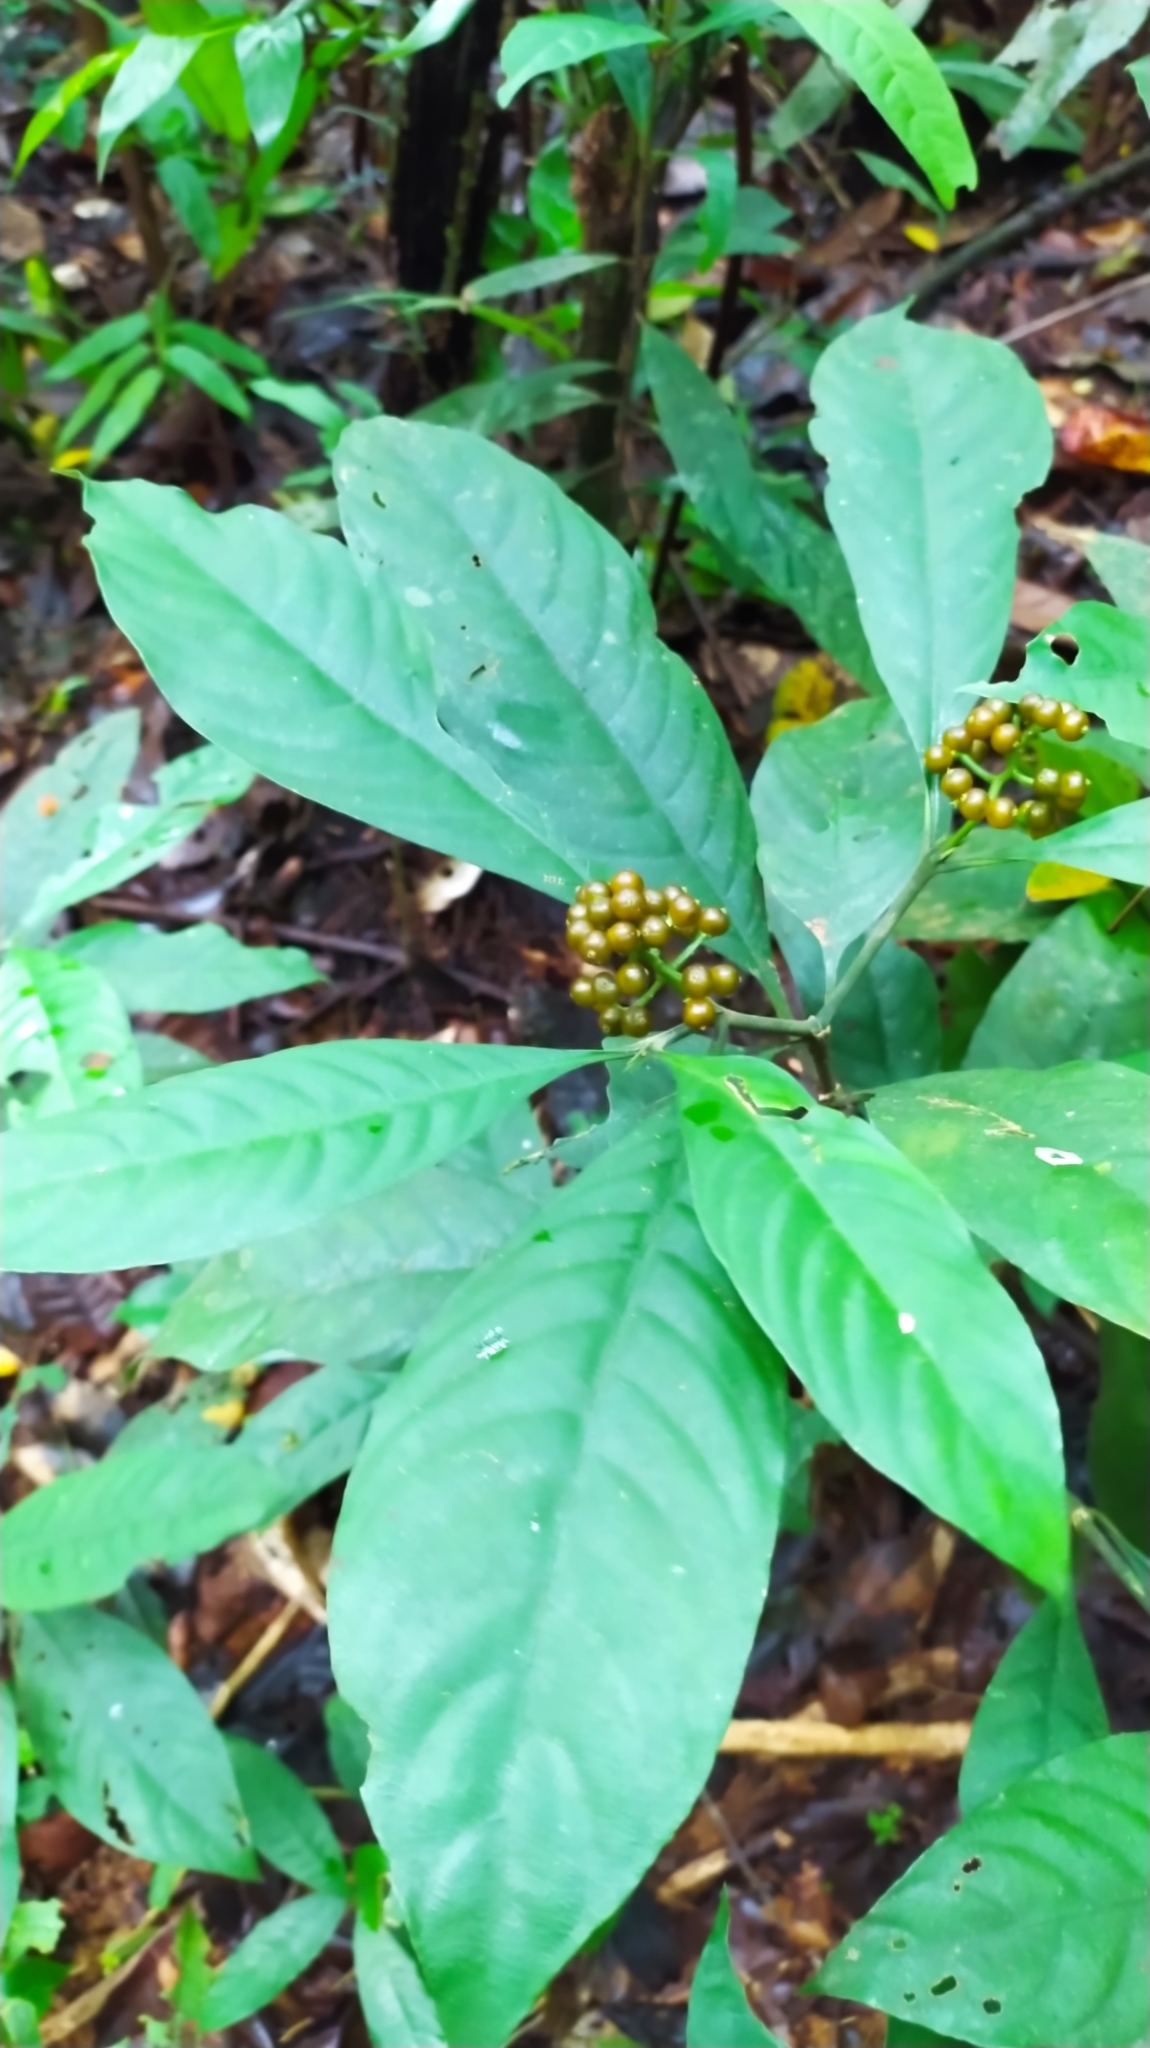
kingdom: Plantae
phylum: Tracheophyta
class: Magnoliopsida
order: Gentianales
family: Rubiaceae
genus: Palicourea
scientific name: Palicourea racemosa
